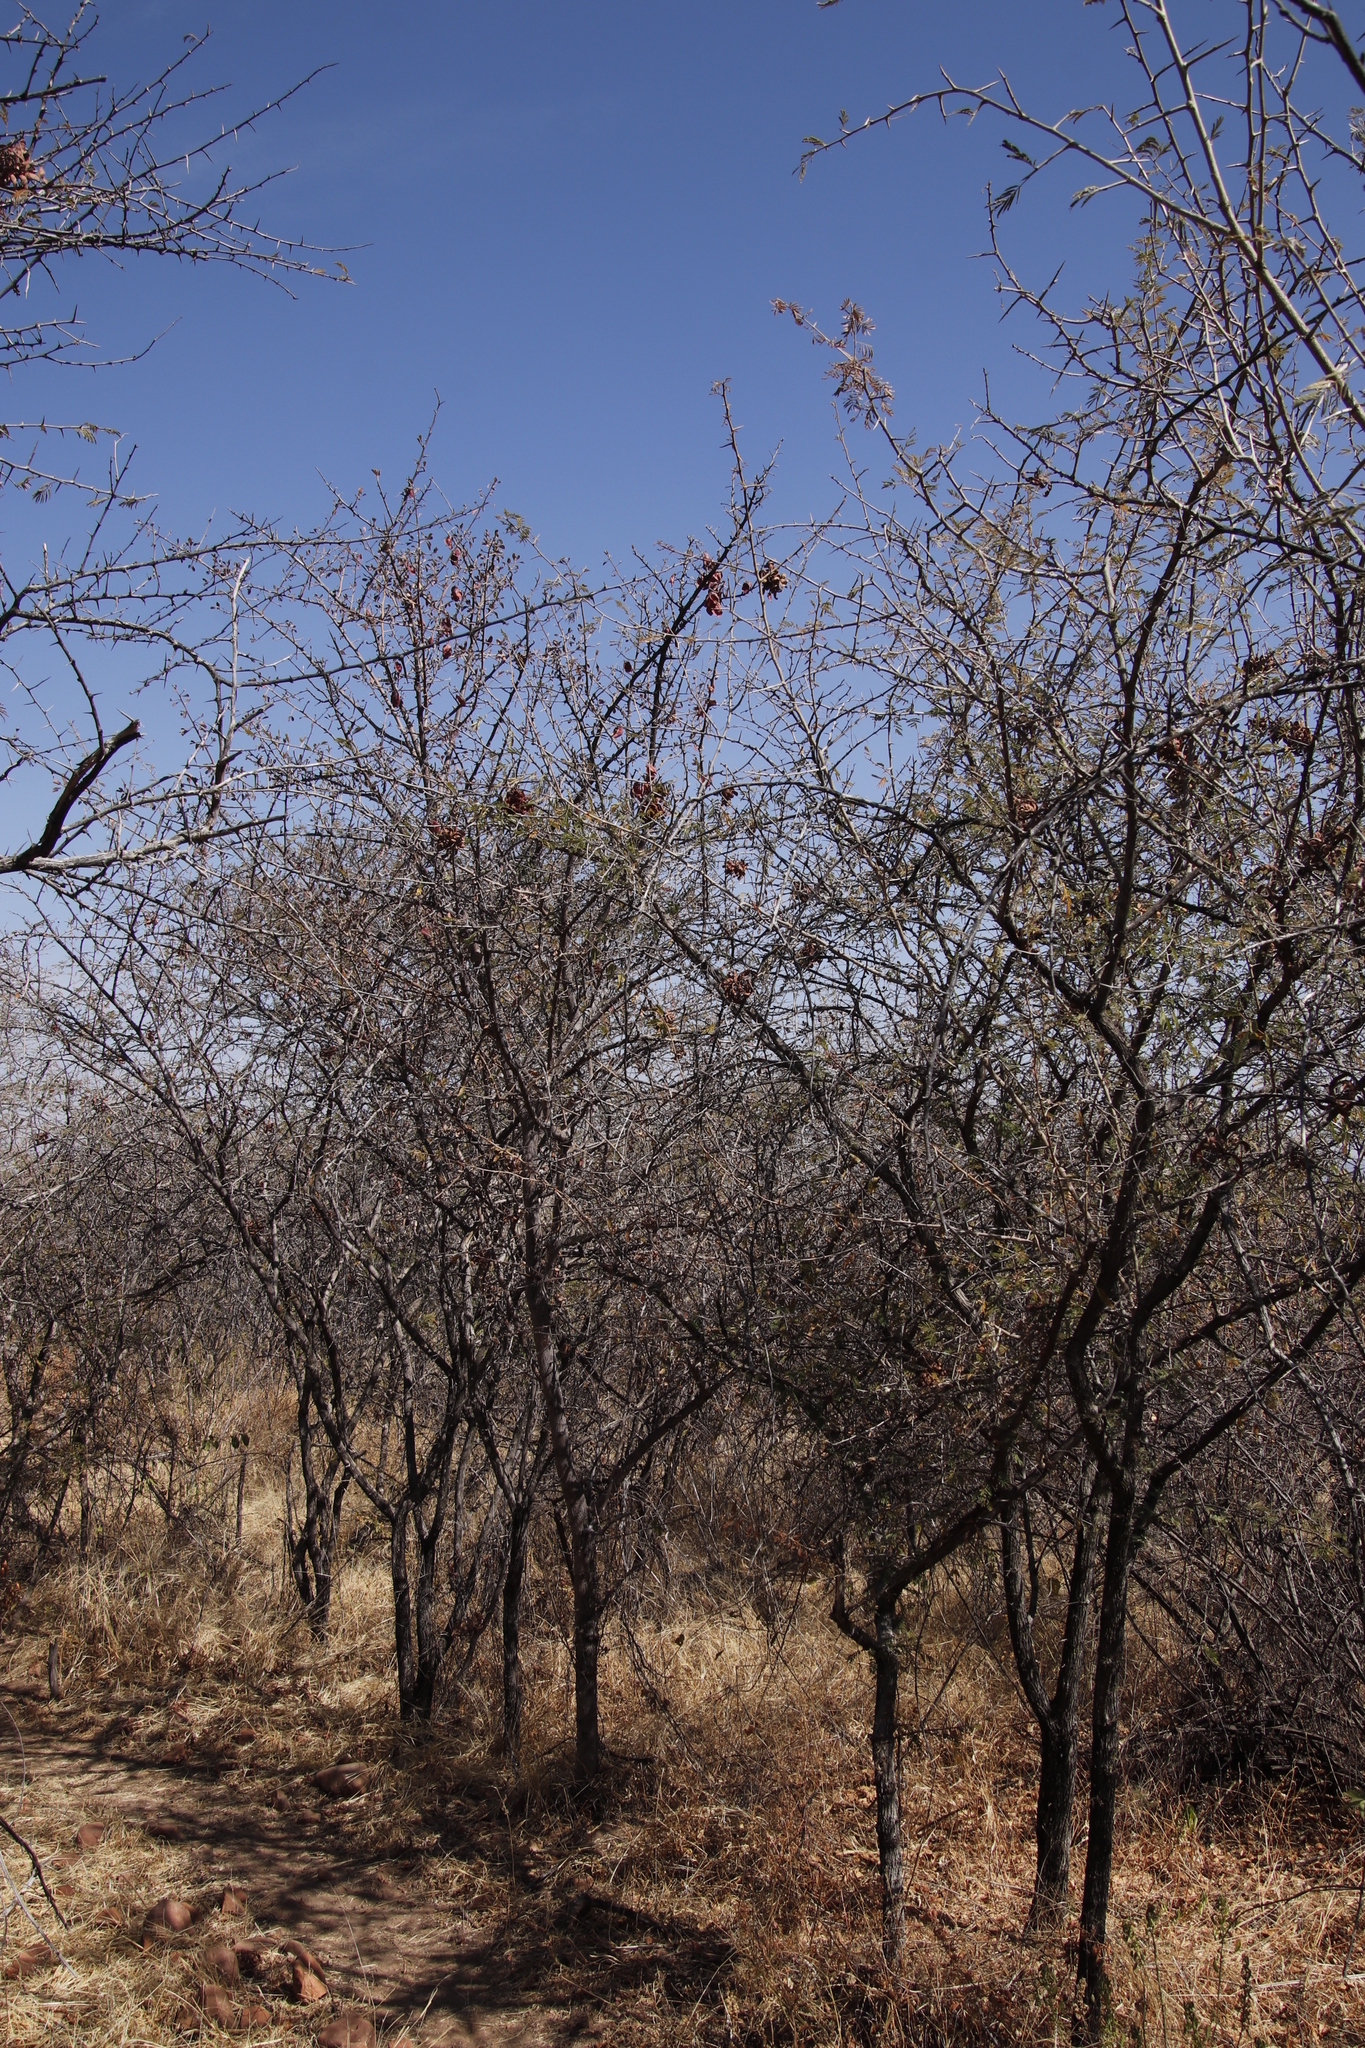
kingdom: Plantae
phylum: Tracheophyta
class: Magnoliopsida
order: Fabales
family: Fabaceae
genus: Dichrostachys
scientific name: Dichrostachys cinerea
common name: Sicklebush
